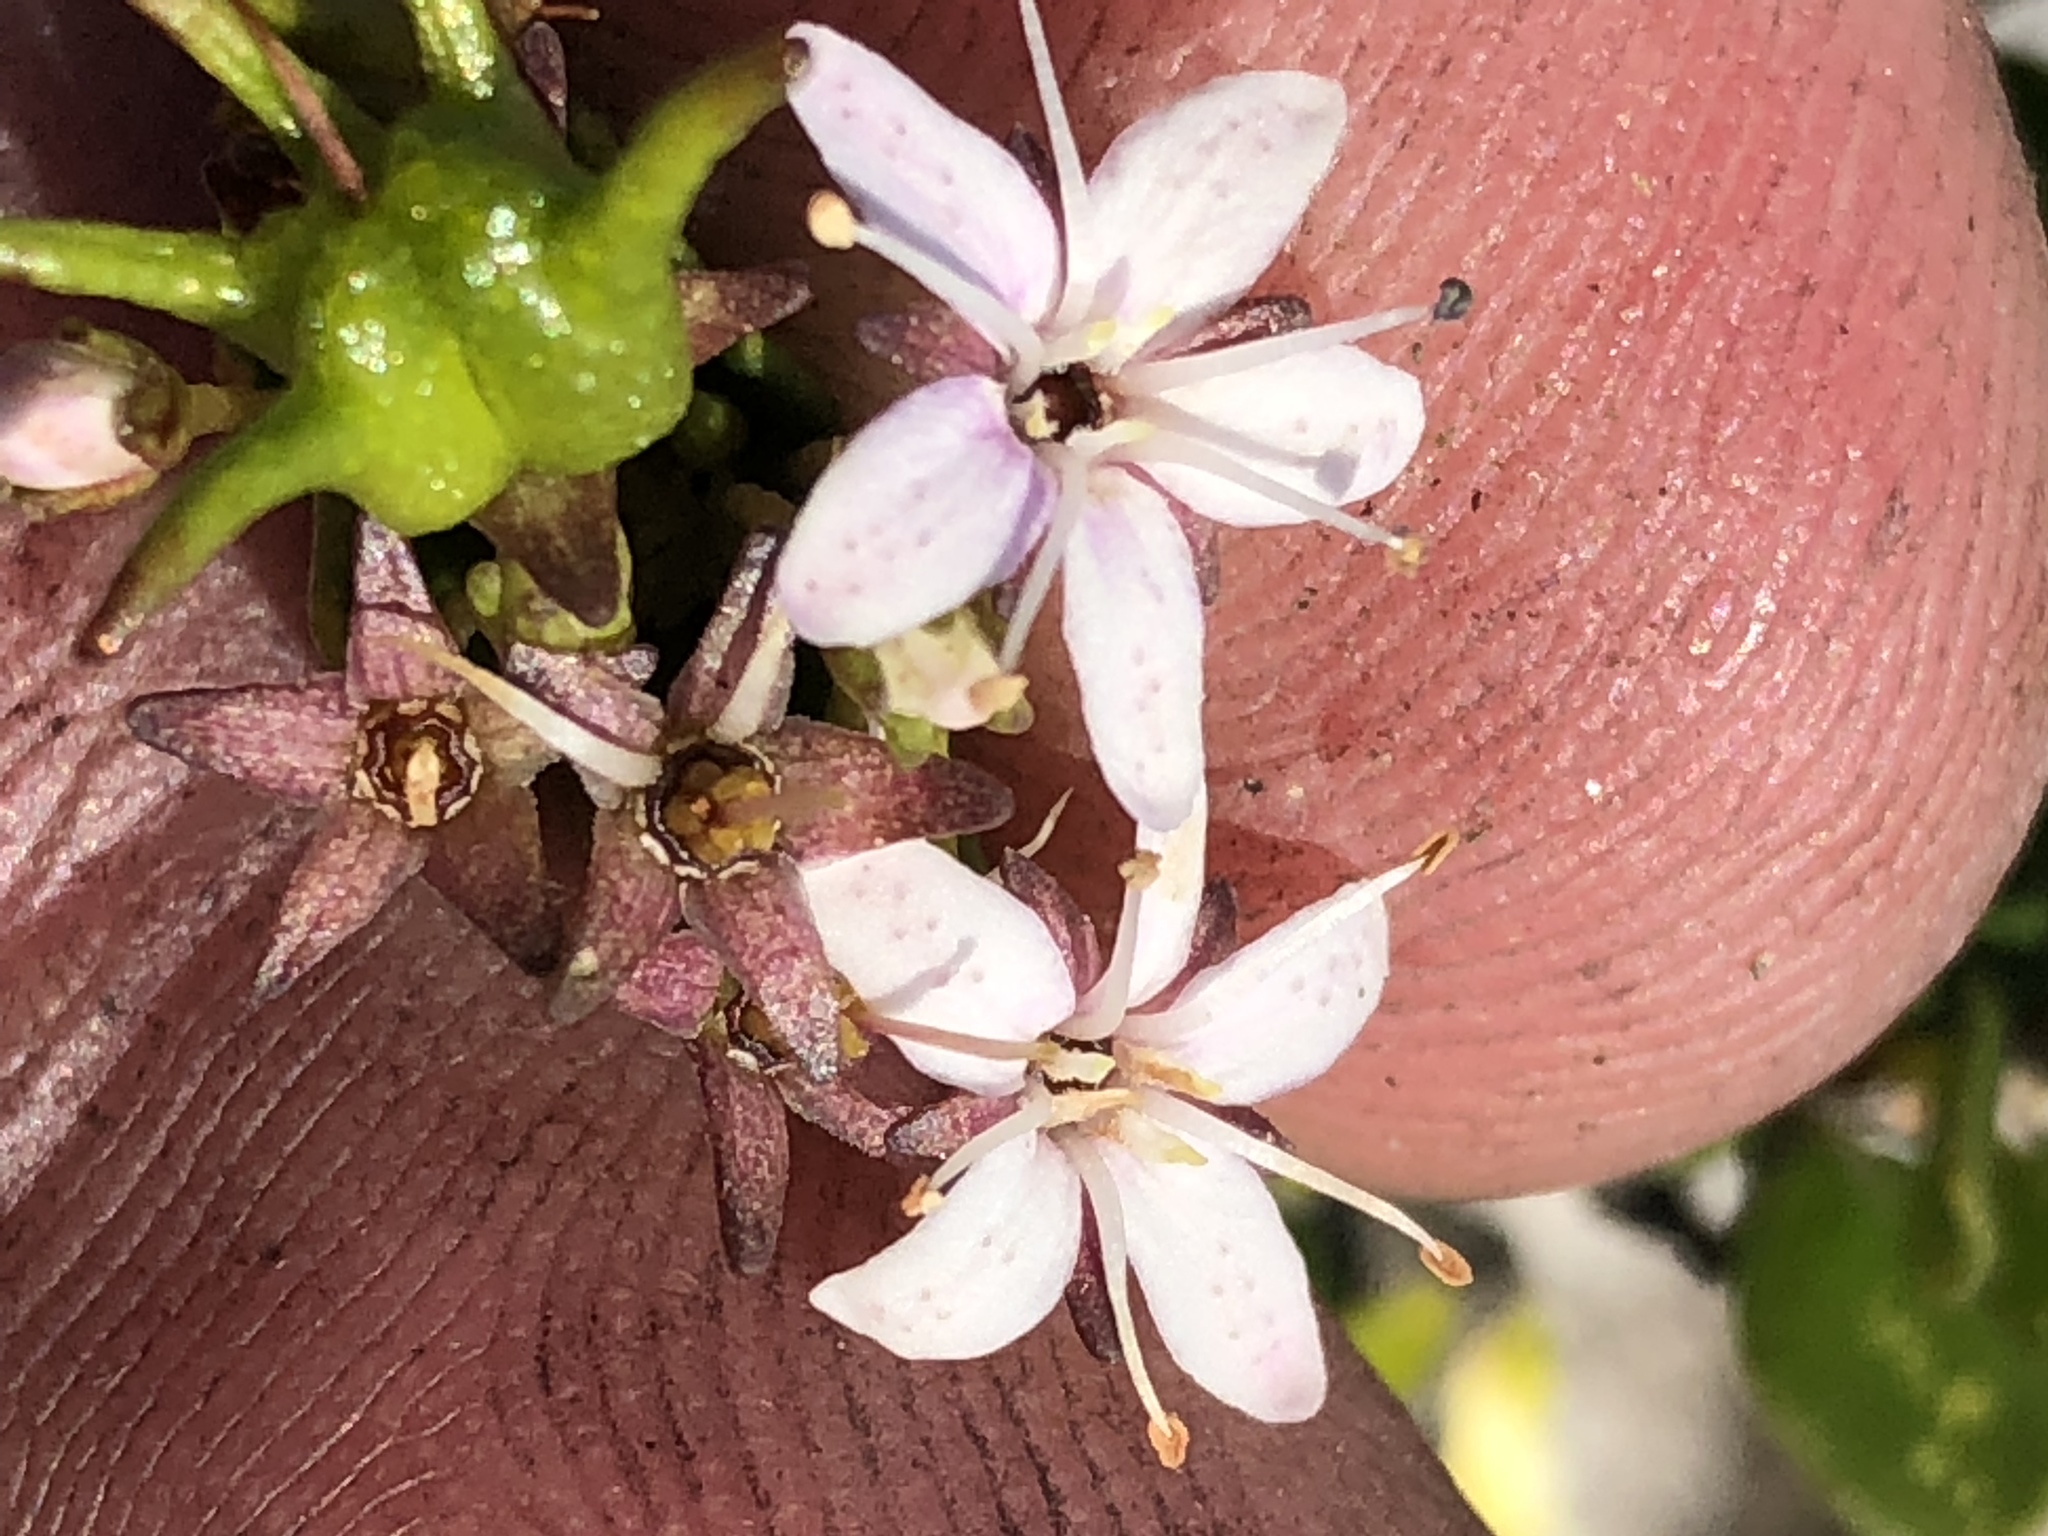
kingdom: Plantae
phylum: Tracheophyta
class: Magnoliopsida
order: Sapindales
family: Rutaceae
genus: Agathosma
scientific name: Agathosma ovata
